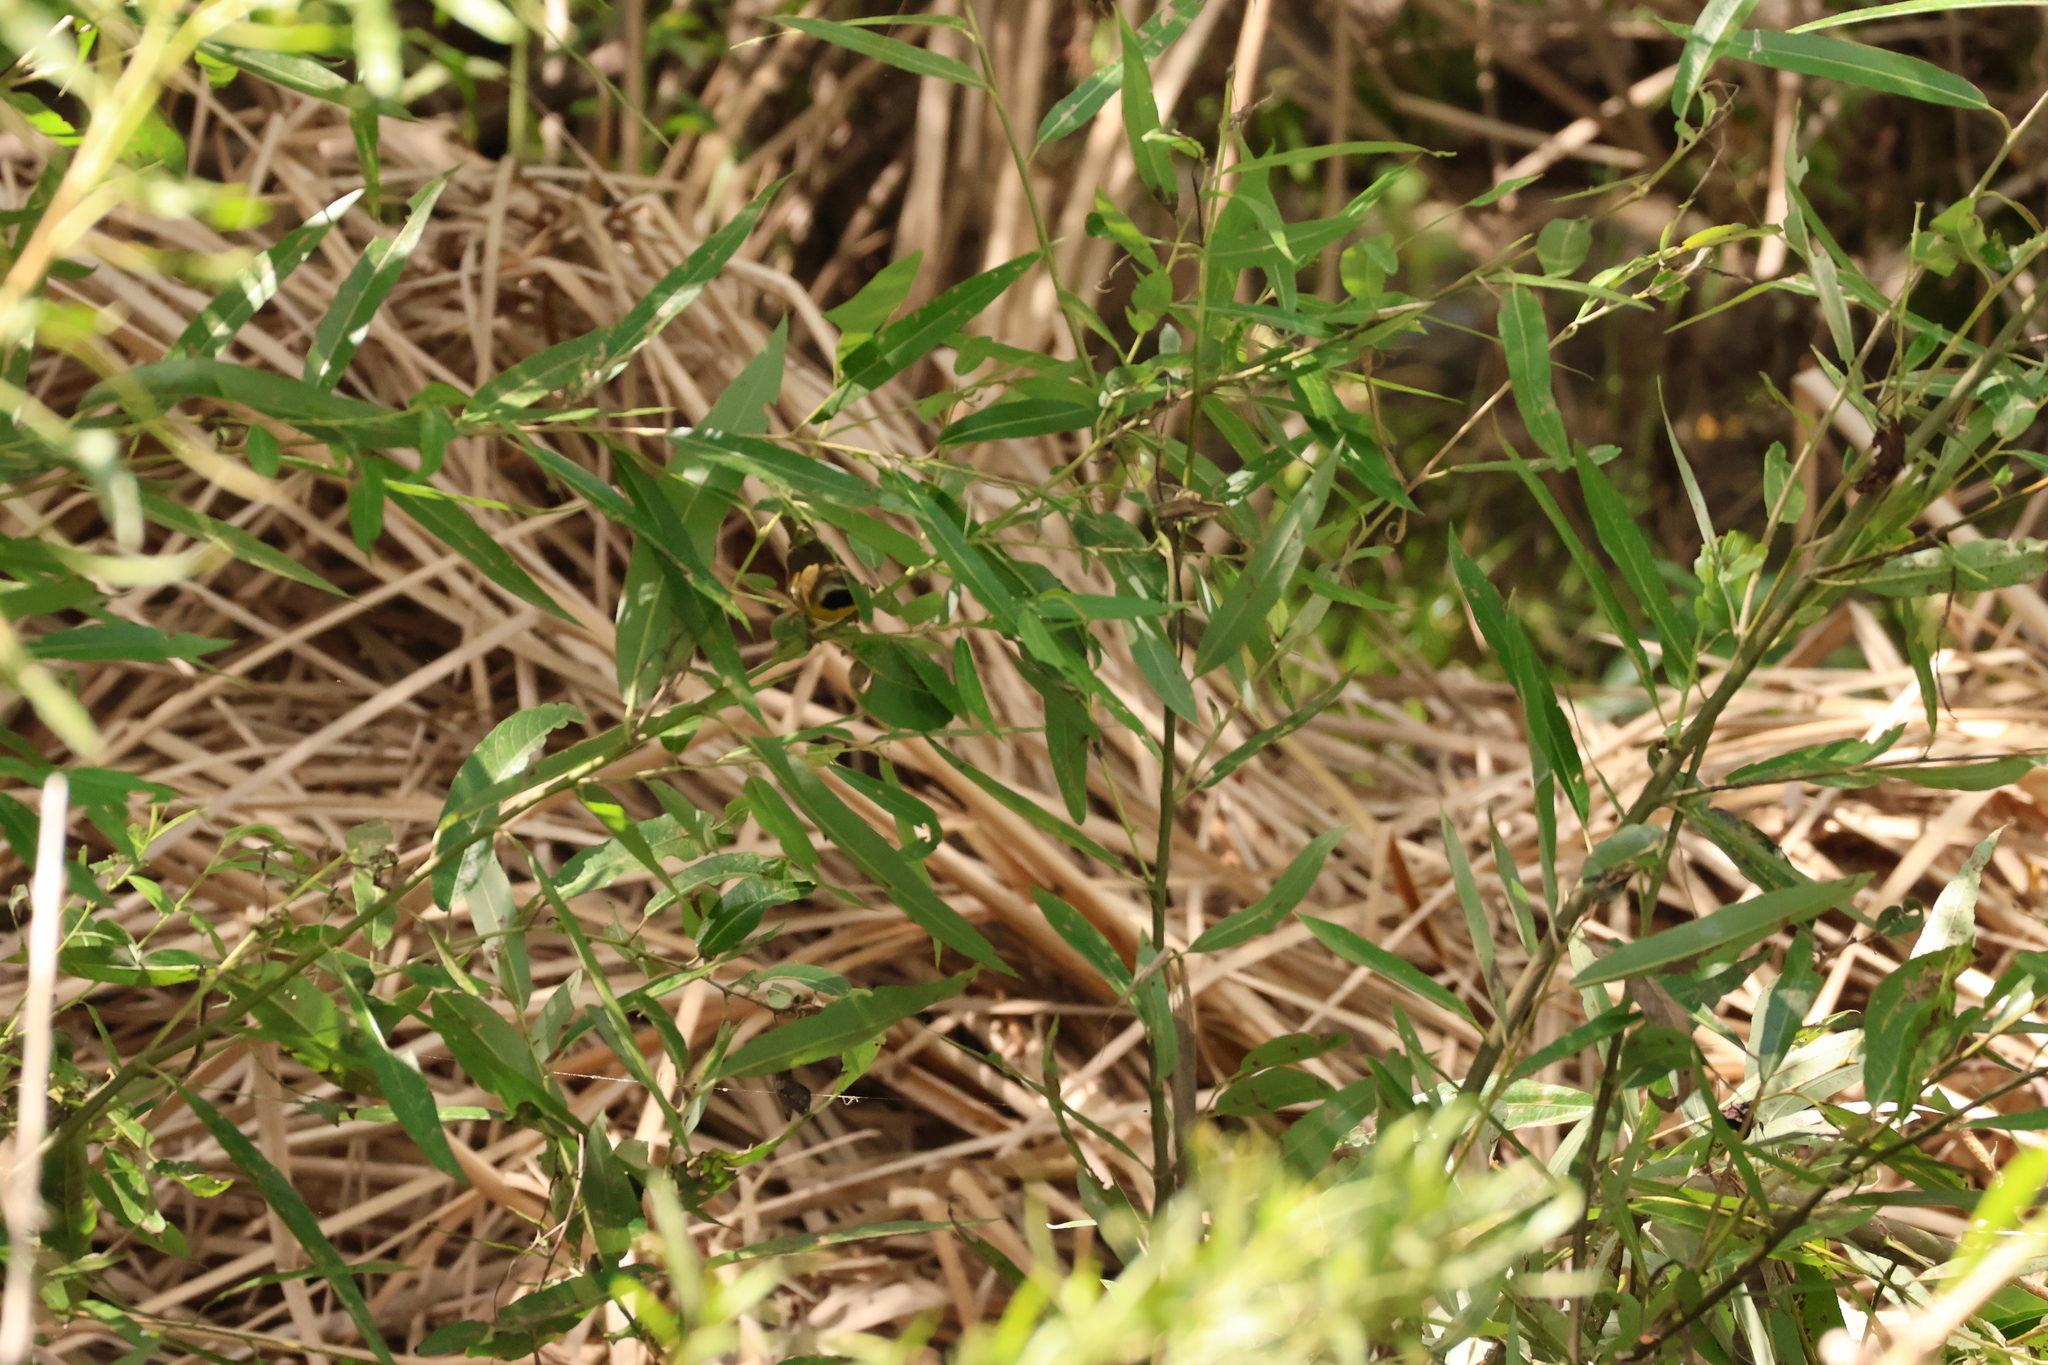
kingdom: Animalia
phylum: Chordata
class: Aves
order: Passeriformes
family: Parulidae
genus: Geothlypis
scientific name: Geothlypis trichas
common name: Common yellowthroat
